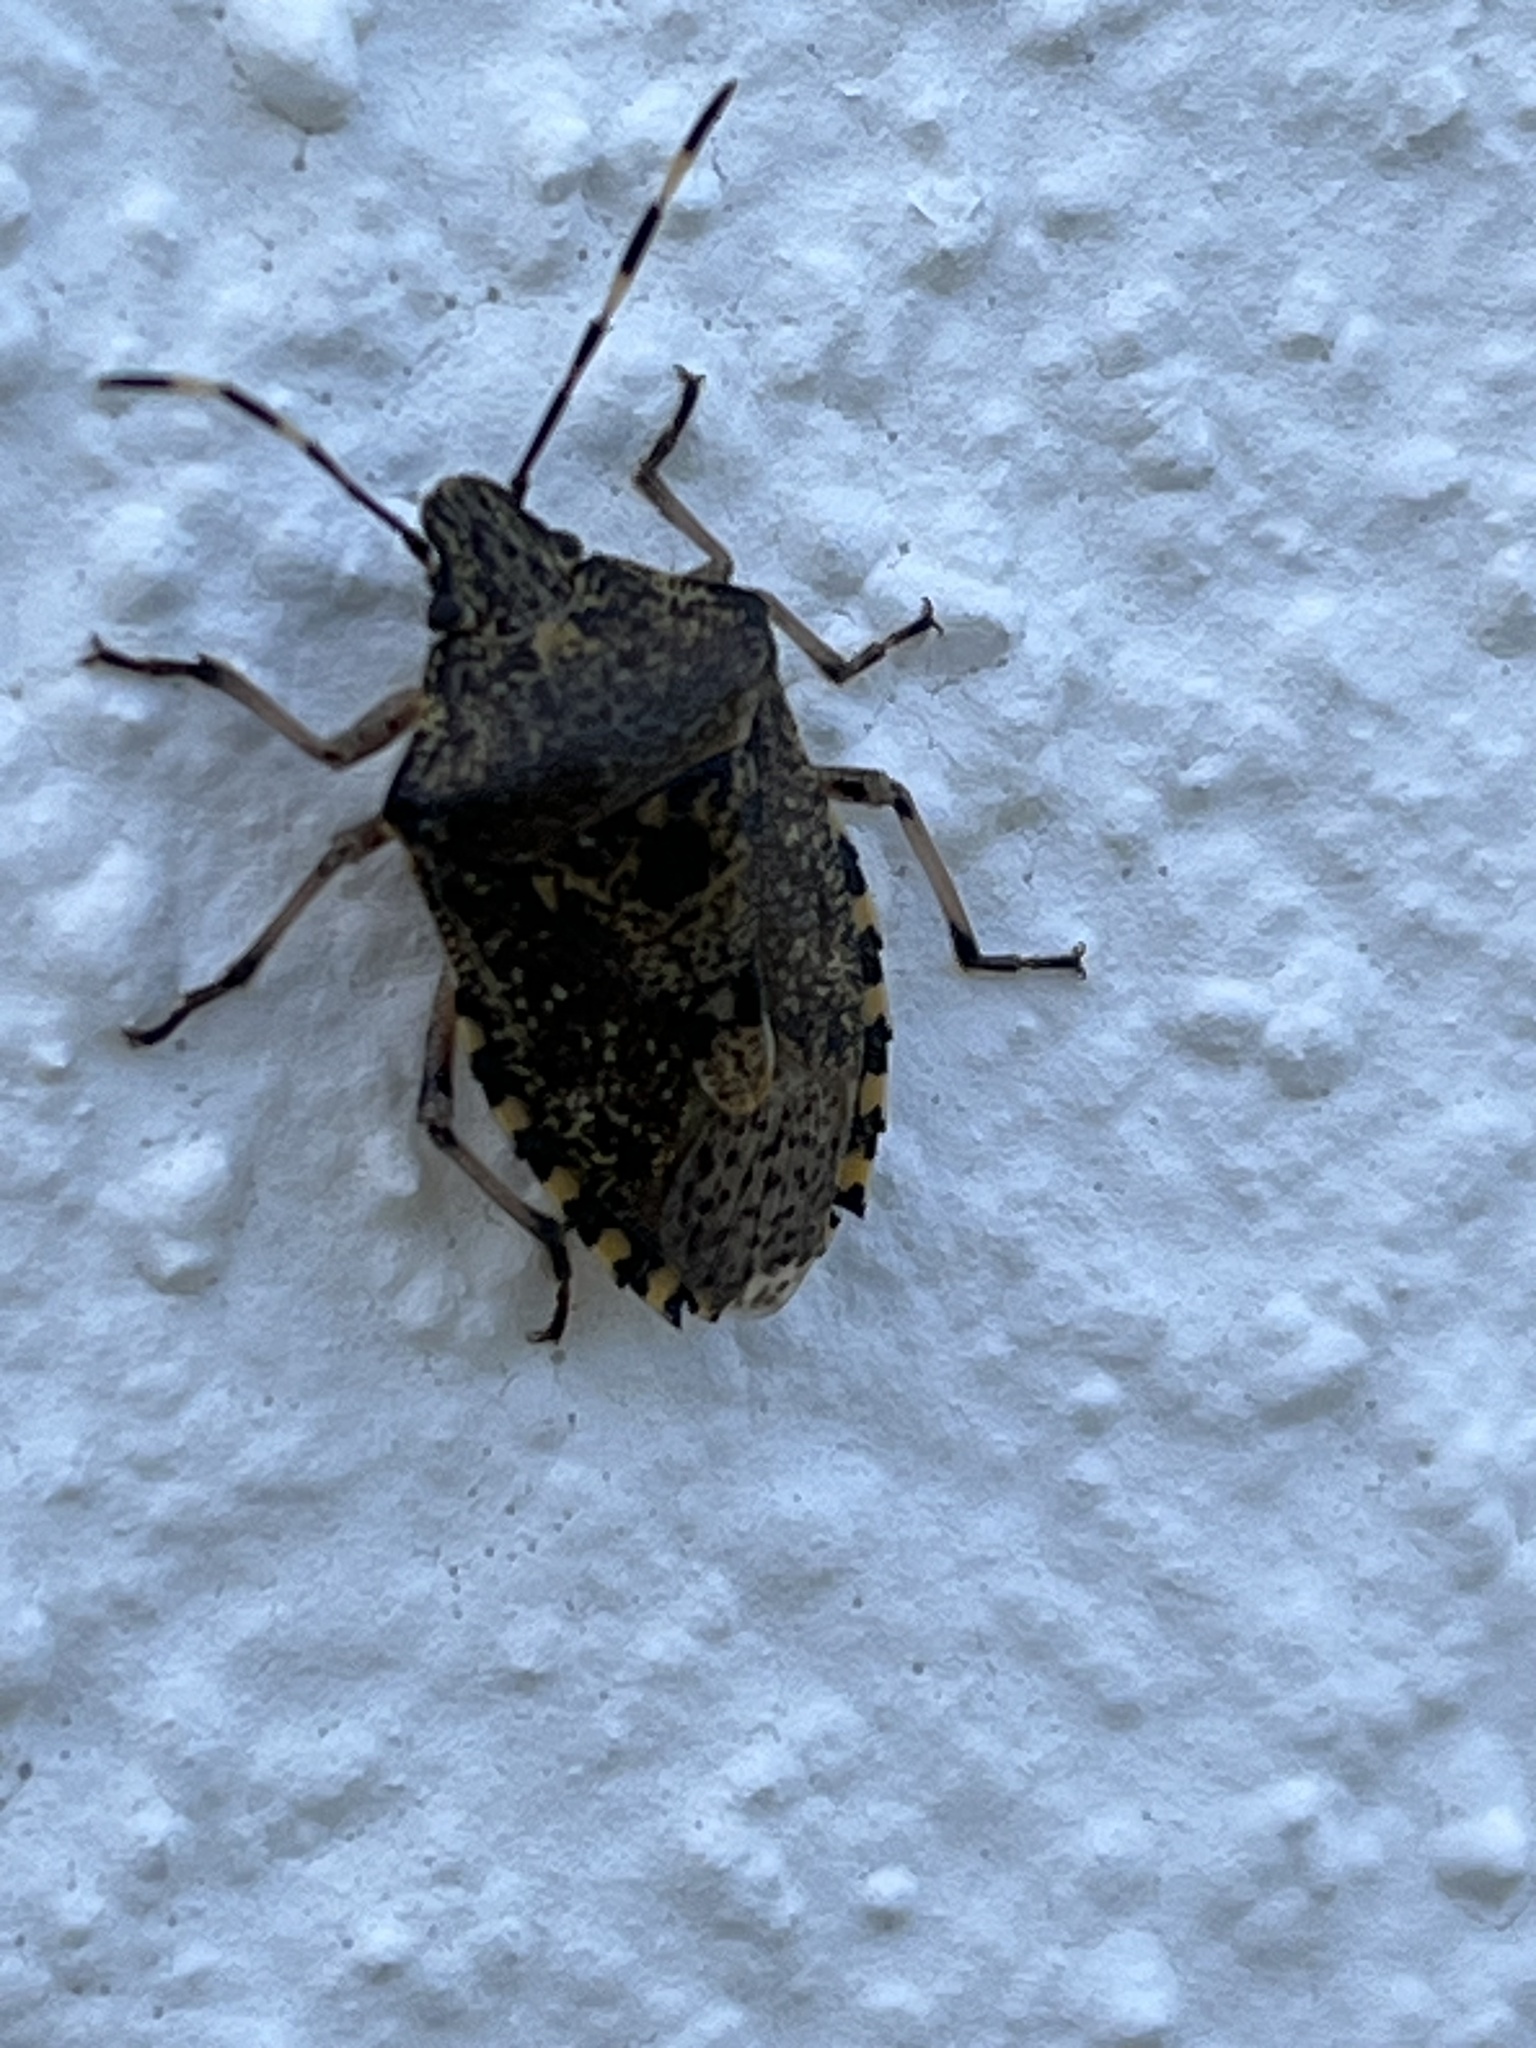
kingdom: Animalia
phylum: Arthropoda
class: Insecta
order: Hemiptera
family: Pentatomidae
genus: Rhaphigaster
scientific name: Rhaphigaster nebulosa
